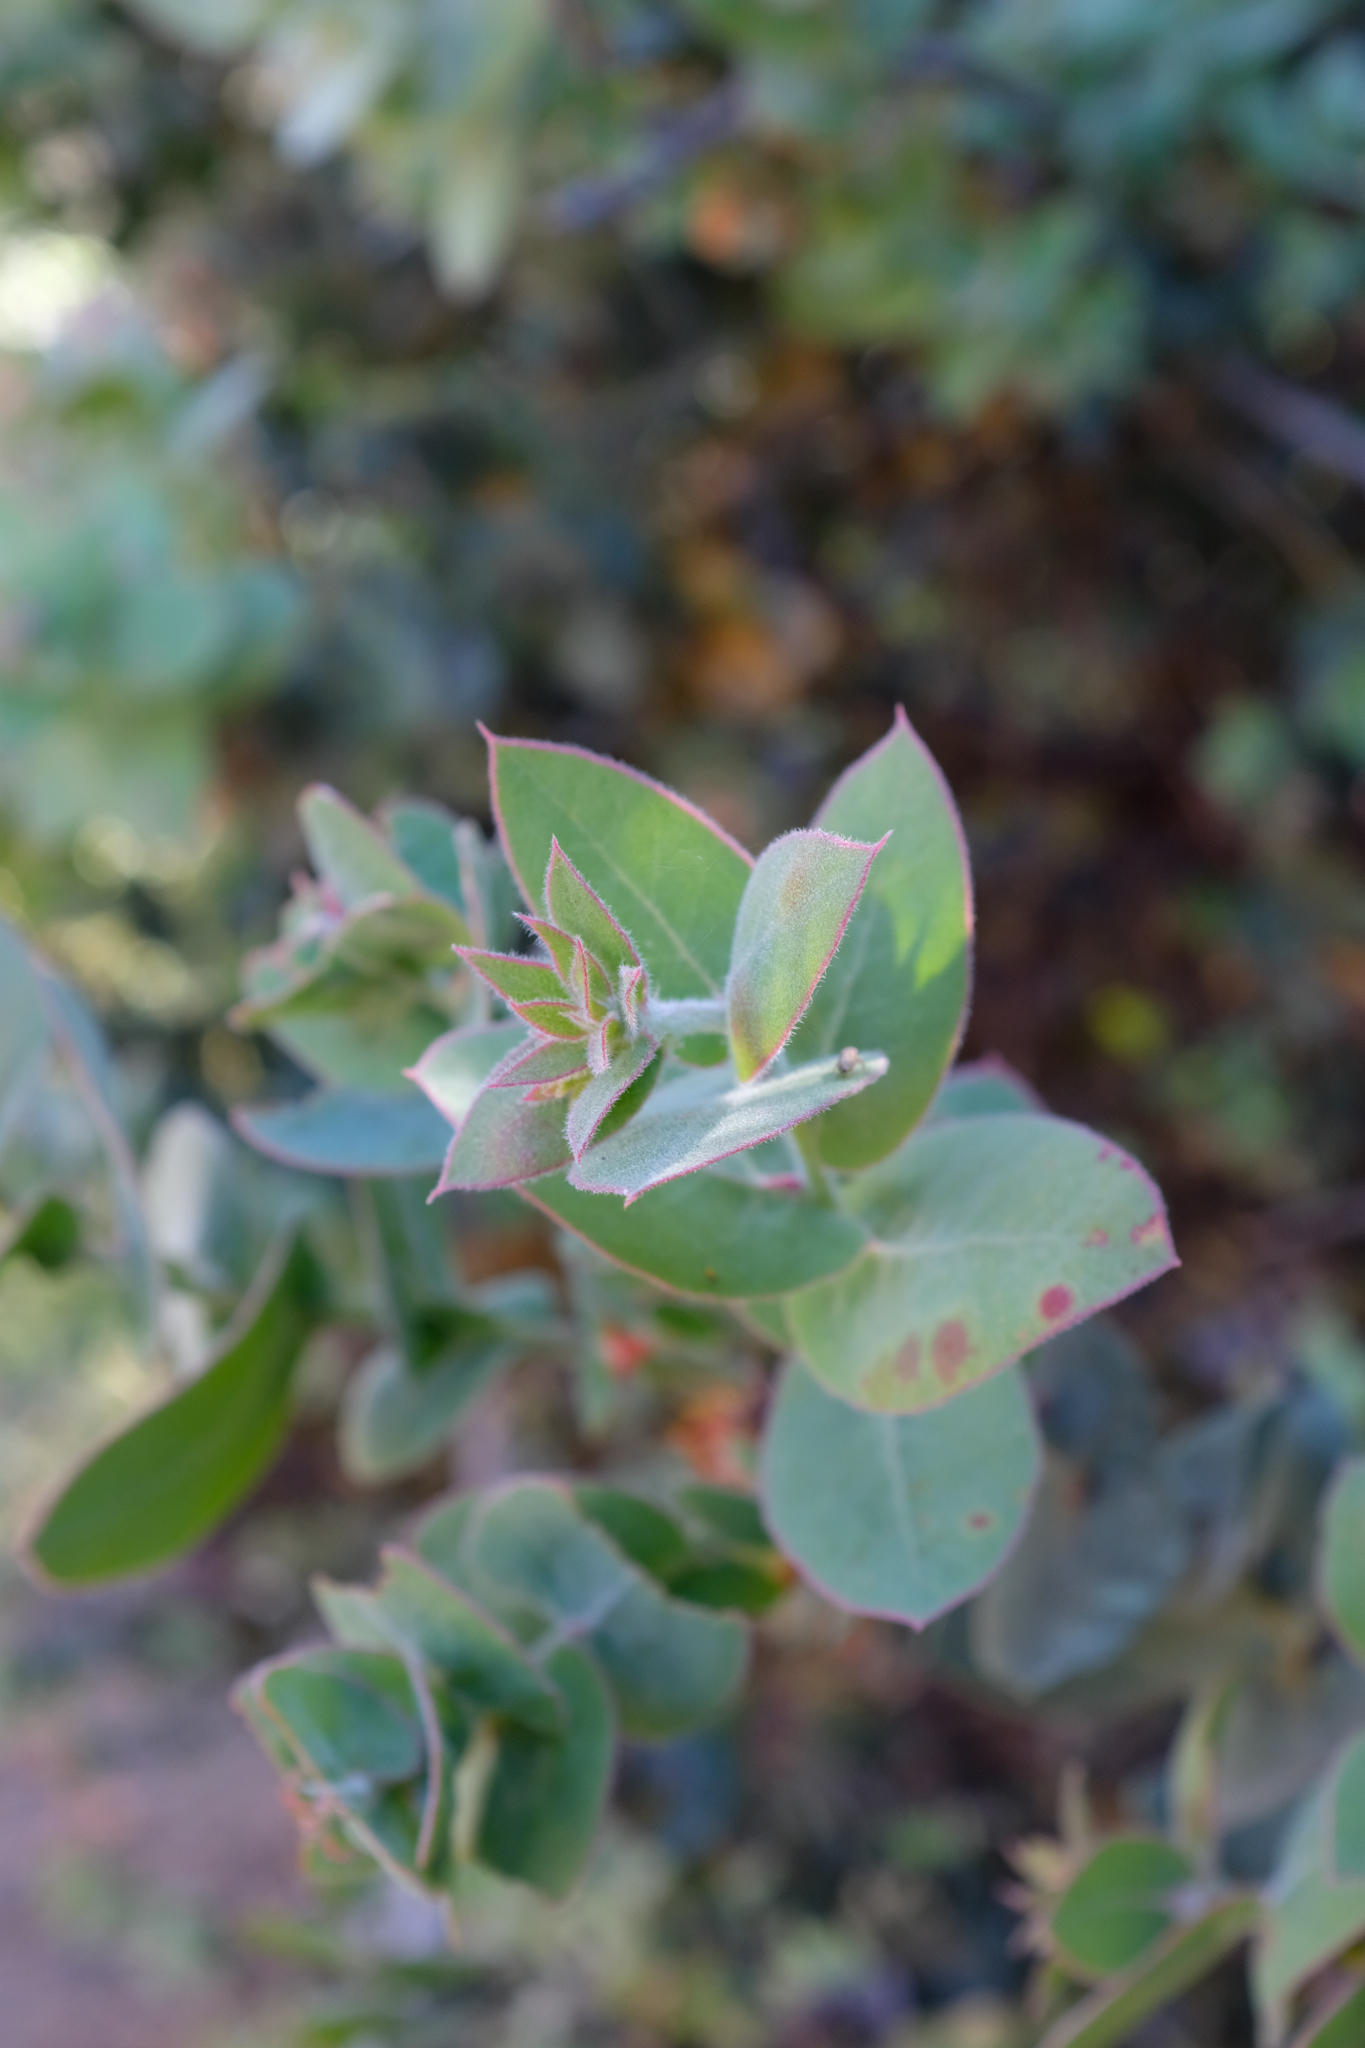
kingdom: Plantae
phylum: Tracheophyta
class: Magnoliopsida
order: Ericales
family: Ericaceae
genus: Arctostaphylos
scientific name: Arctostaphylos luciana
